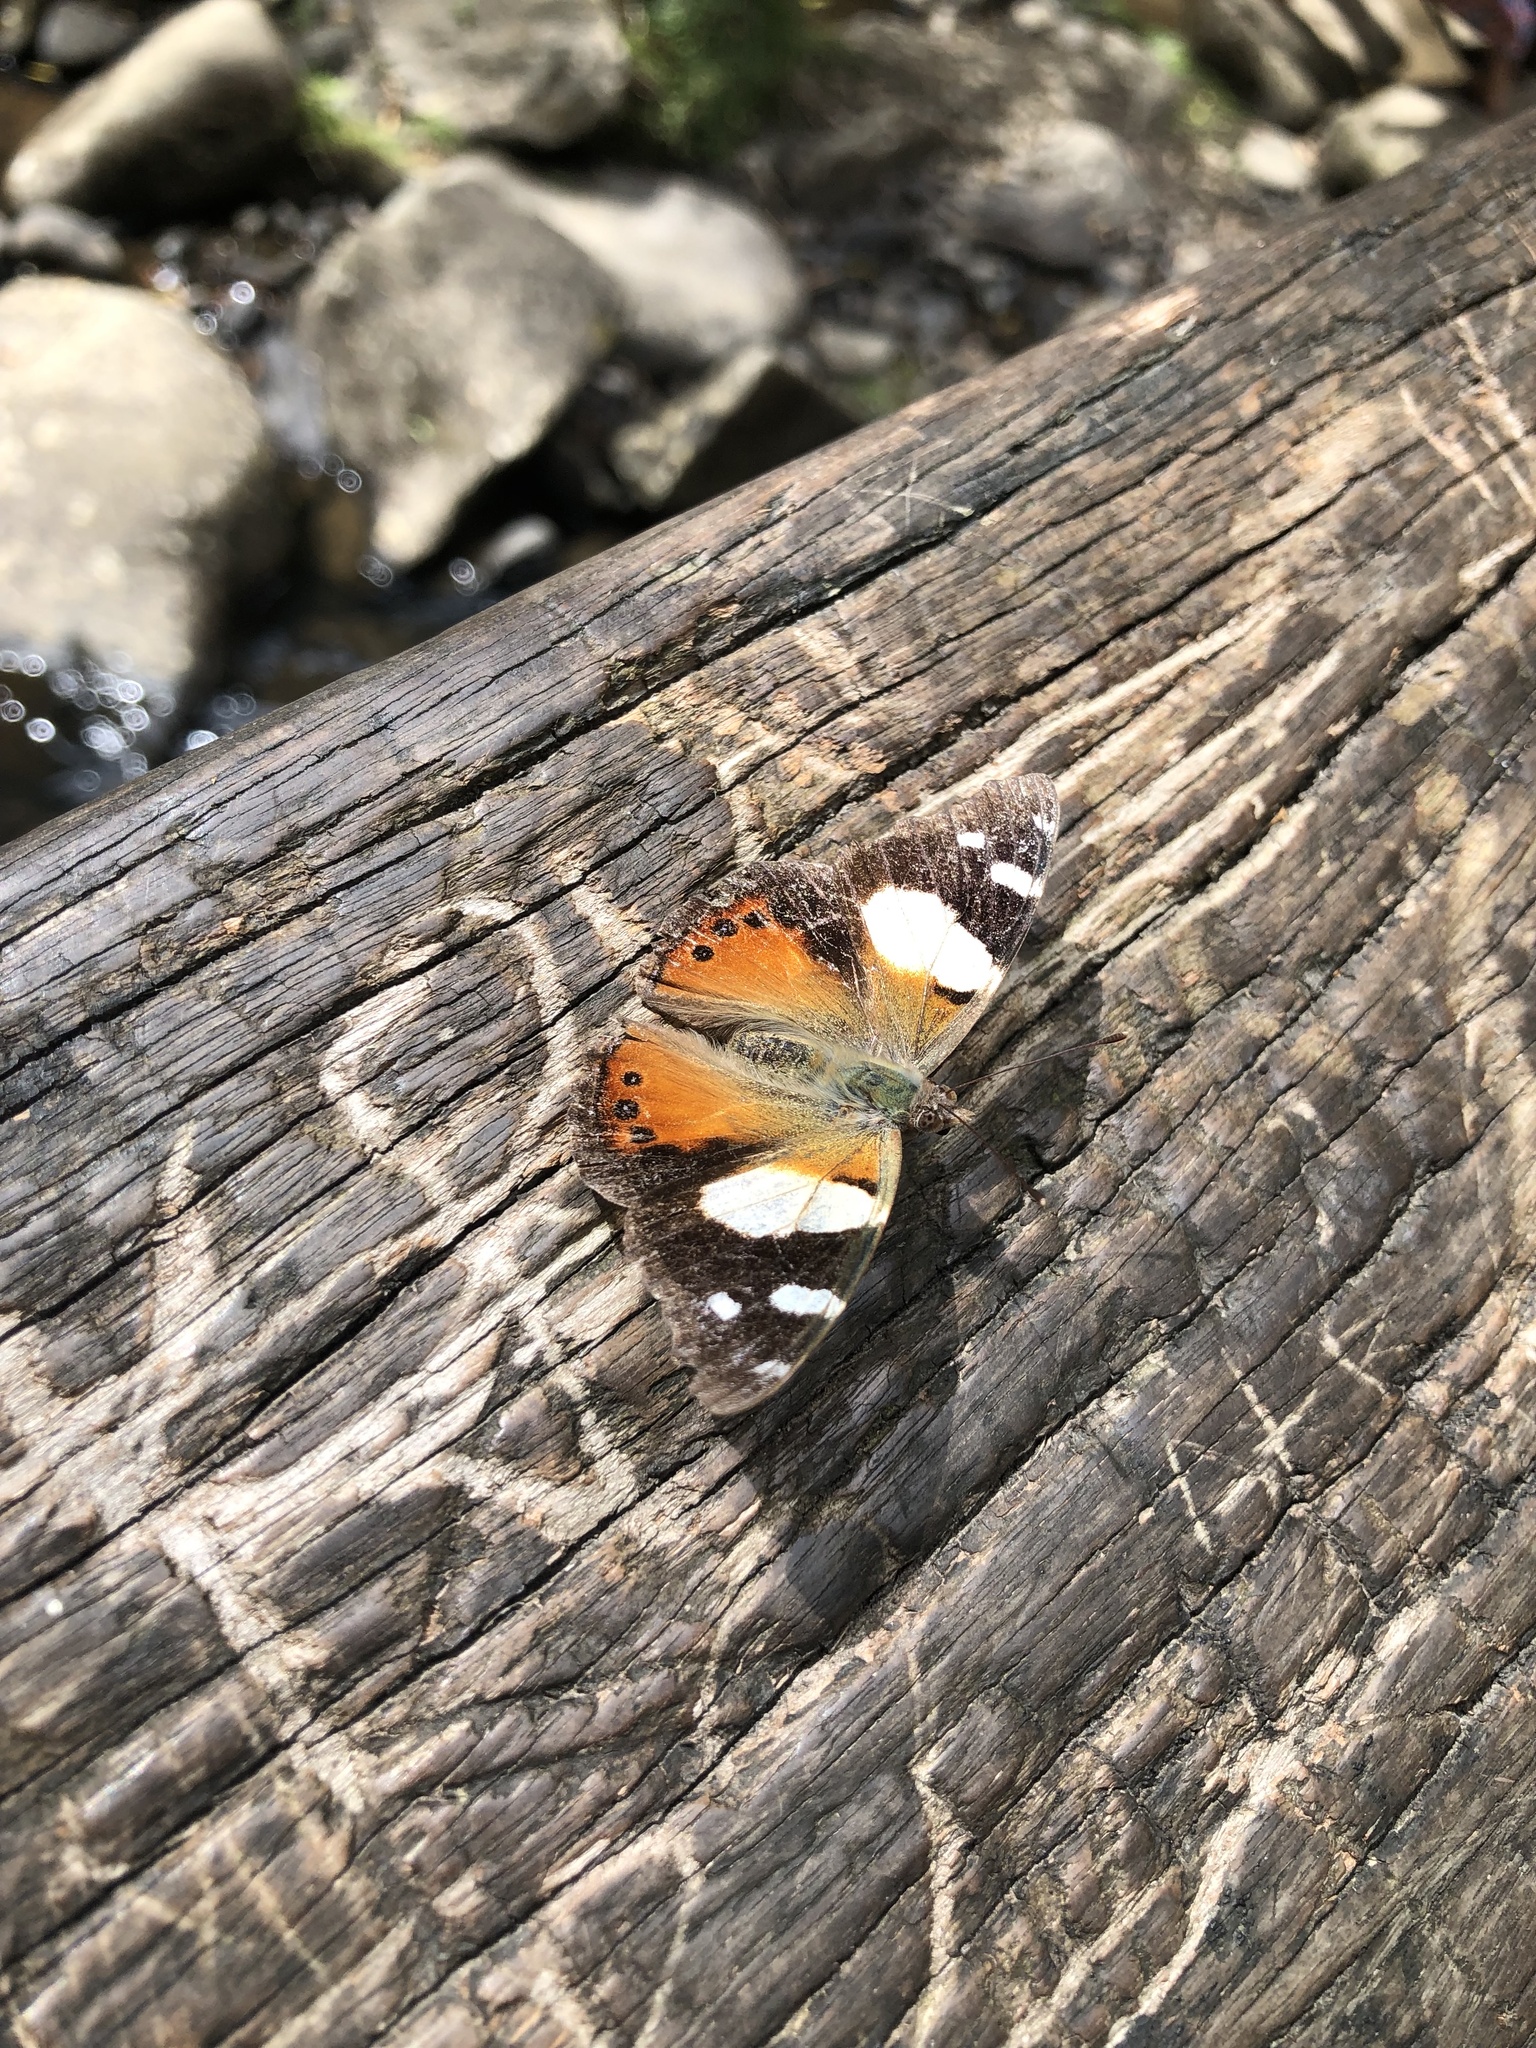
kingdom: Animalia
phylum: Arthropoda
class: Insecta
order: Lepidoptera
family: Nymphalidae
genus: Vanessa
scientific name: Vanessa itea
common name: Yellow admiral
